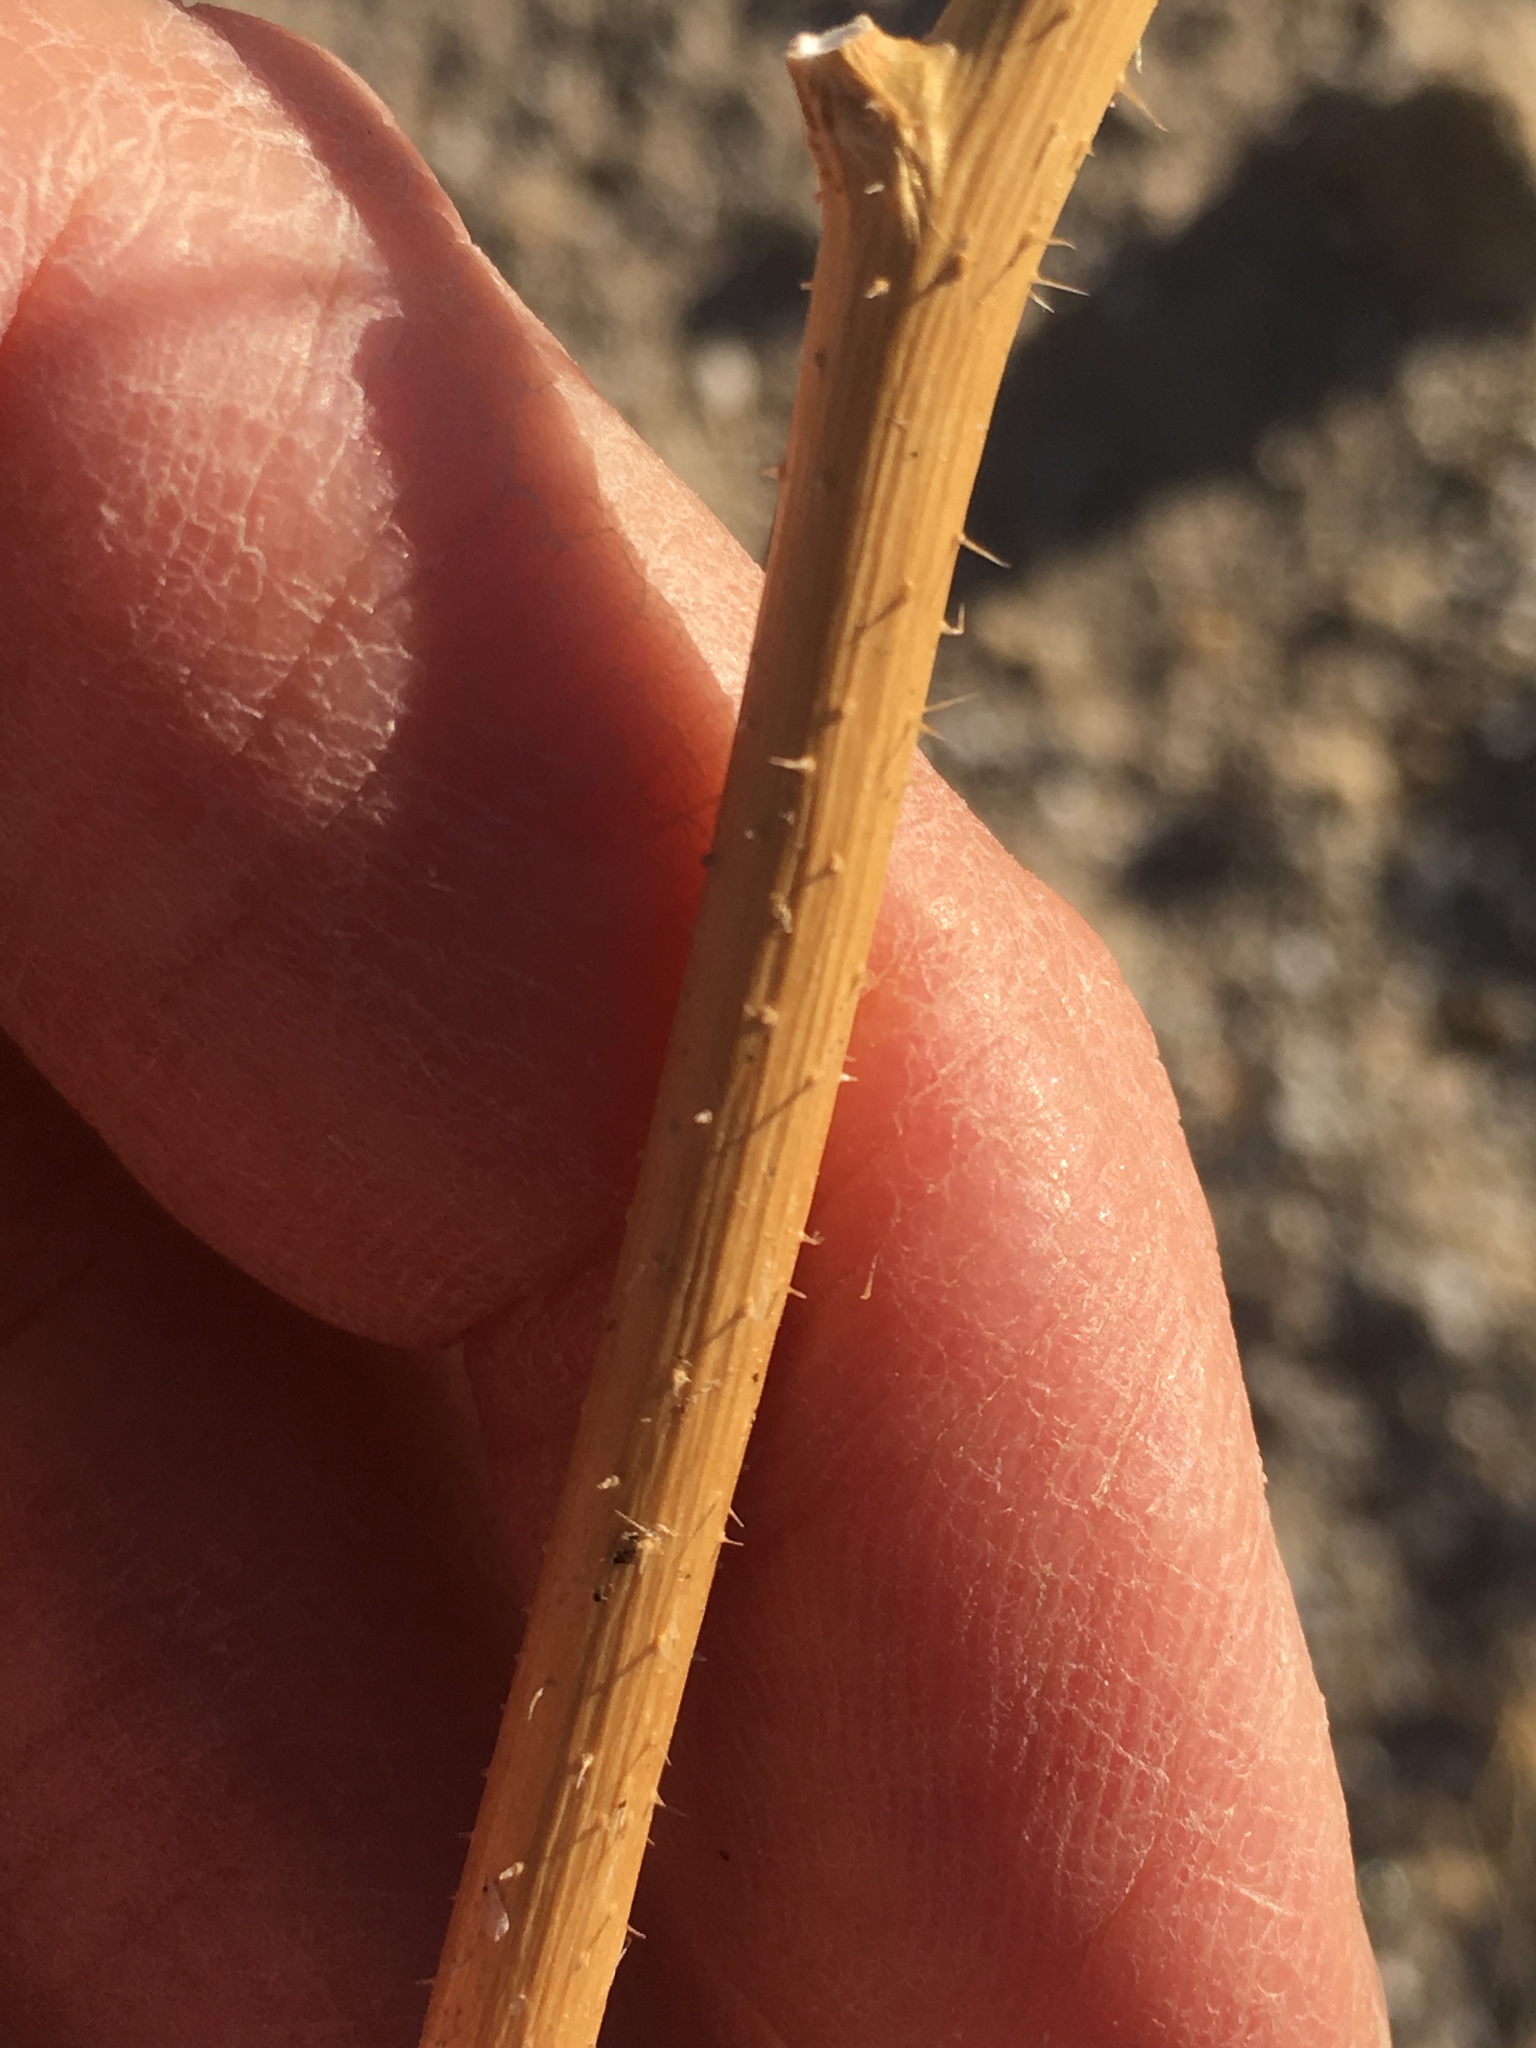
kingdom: Plantae
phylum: Tracheophyta
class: Magnoliopsida
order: Brassicales
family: Brassicaceae
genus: Brassica
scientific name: Brassica tournefortii
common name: Pale cabbage
